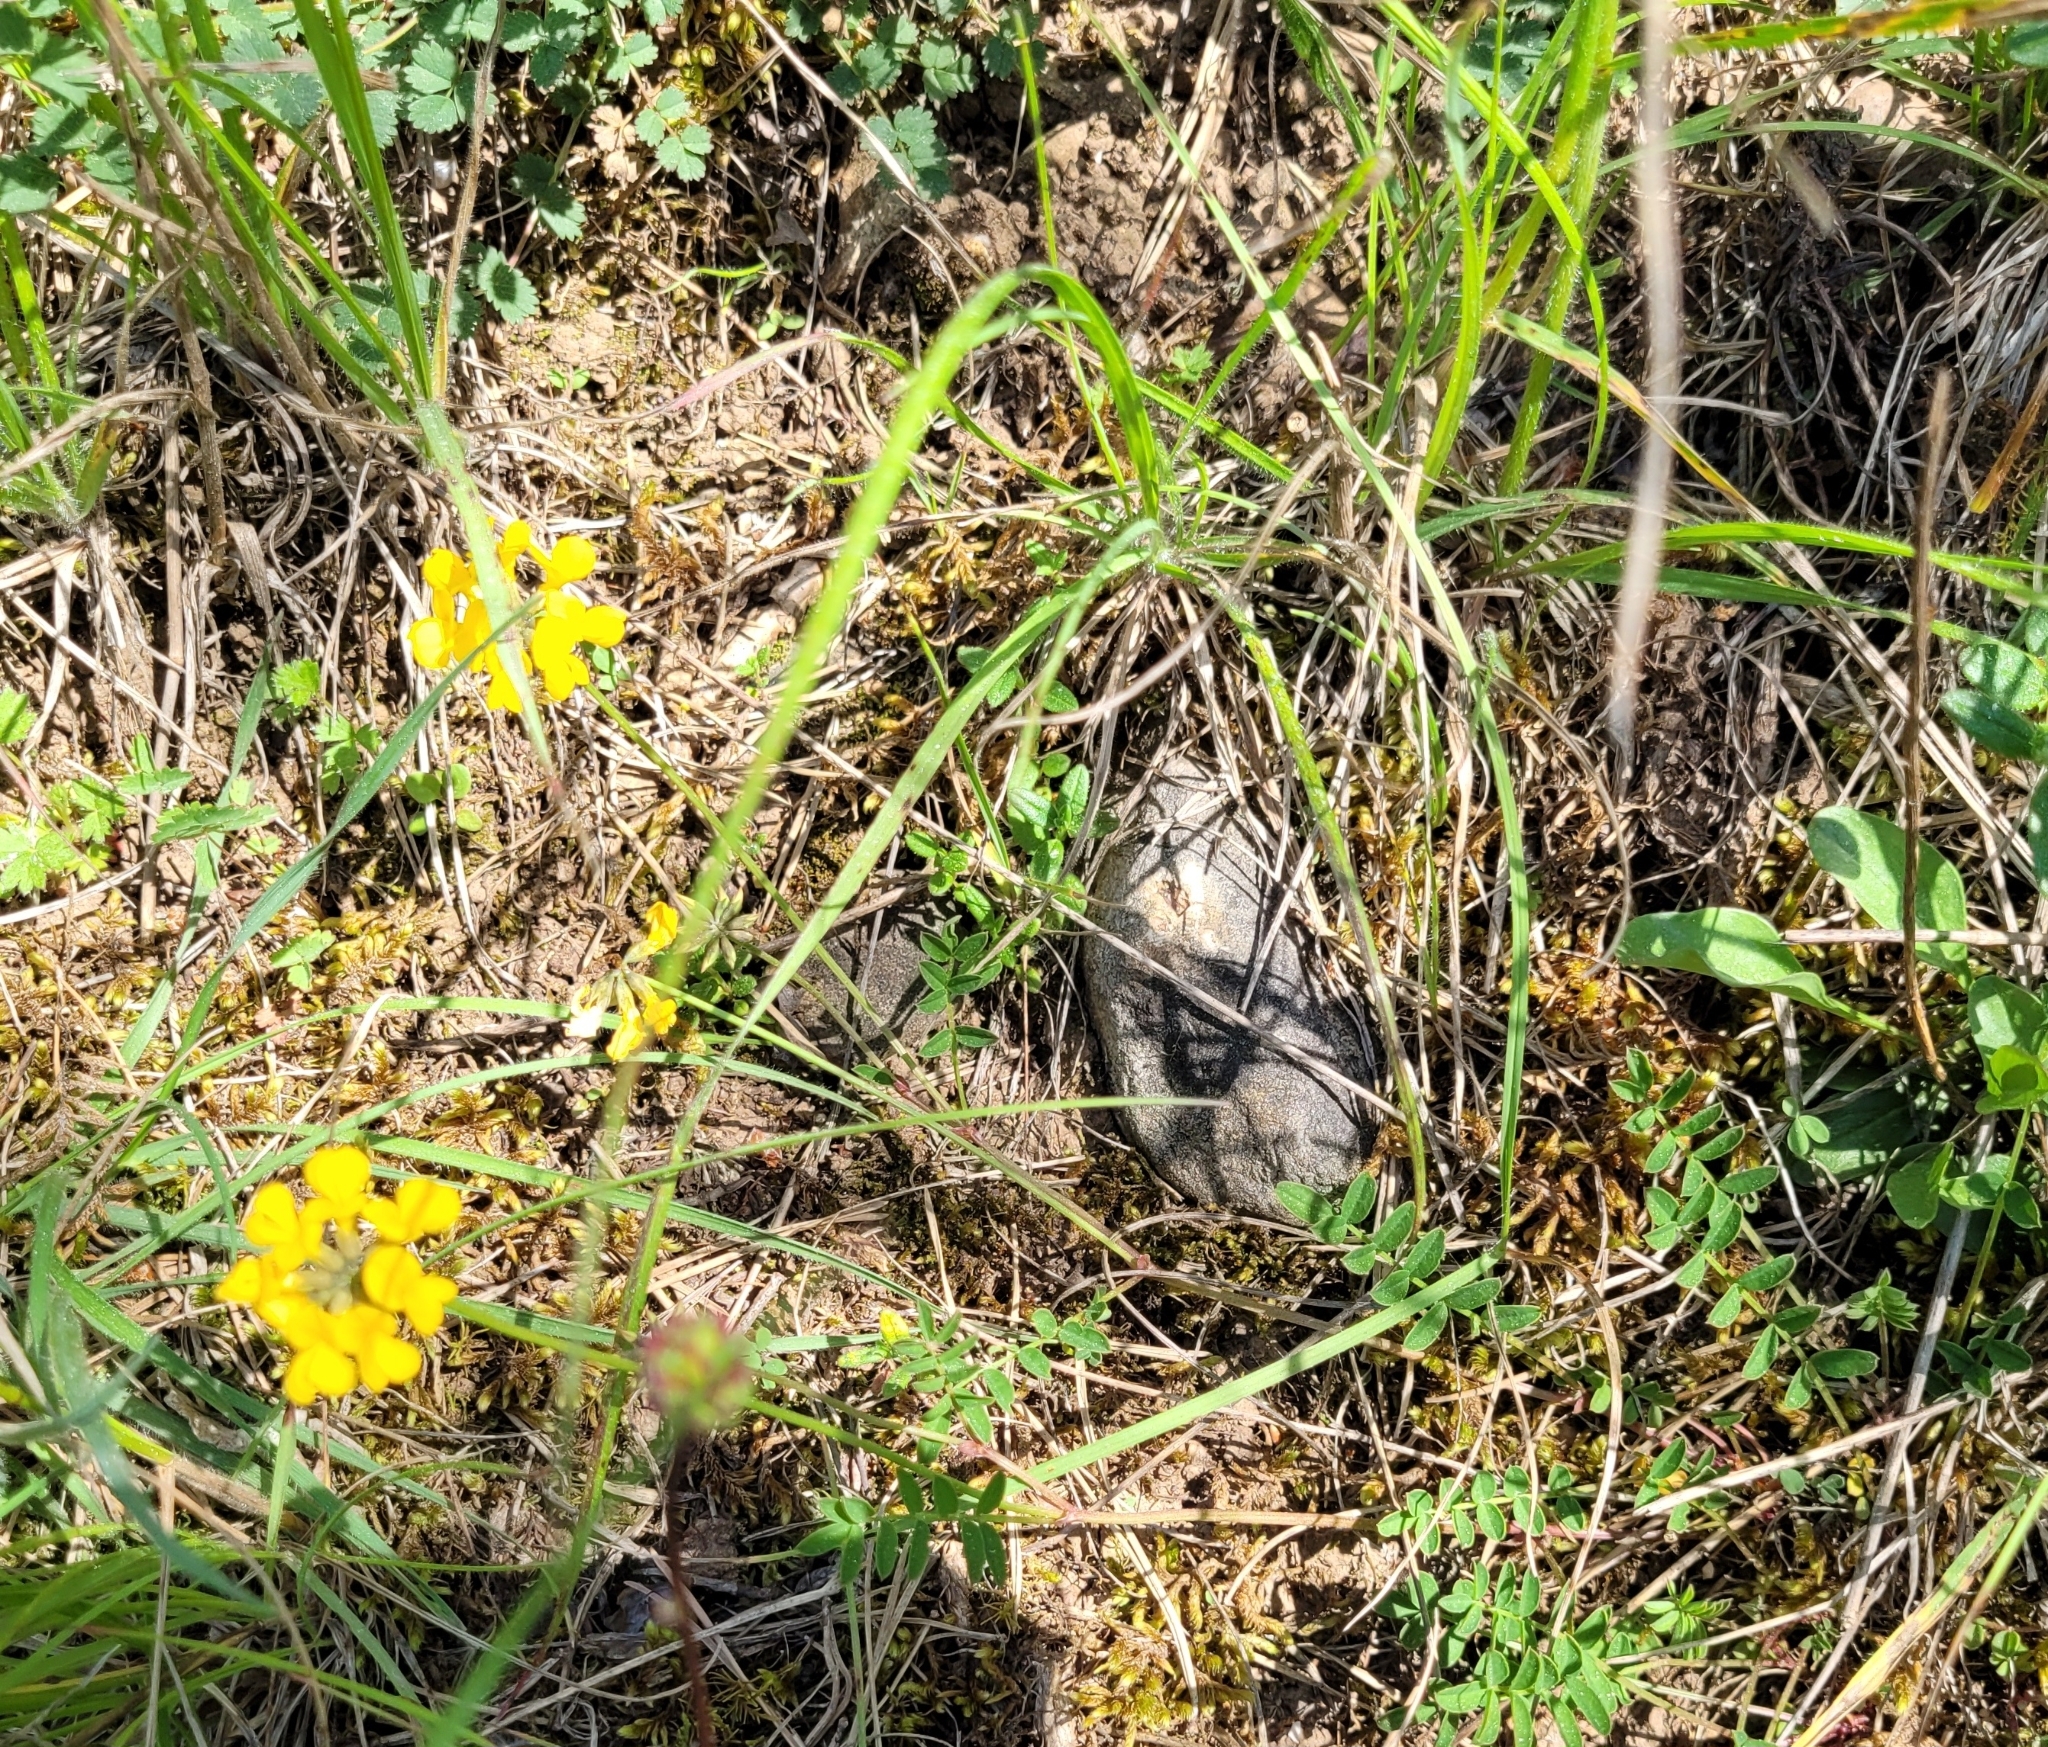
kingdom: Plantae
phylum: Tracheophyta
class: Magnoliopsida
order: Fabales
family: Fabaceae
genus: Hippocrepis
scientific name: Hippocrepis comosa
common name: Horseshoe vetch
